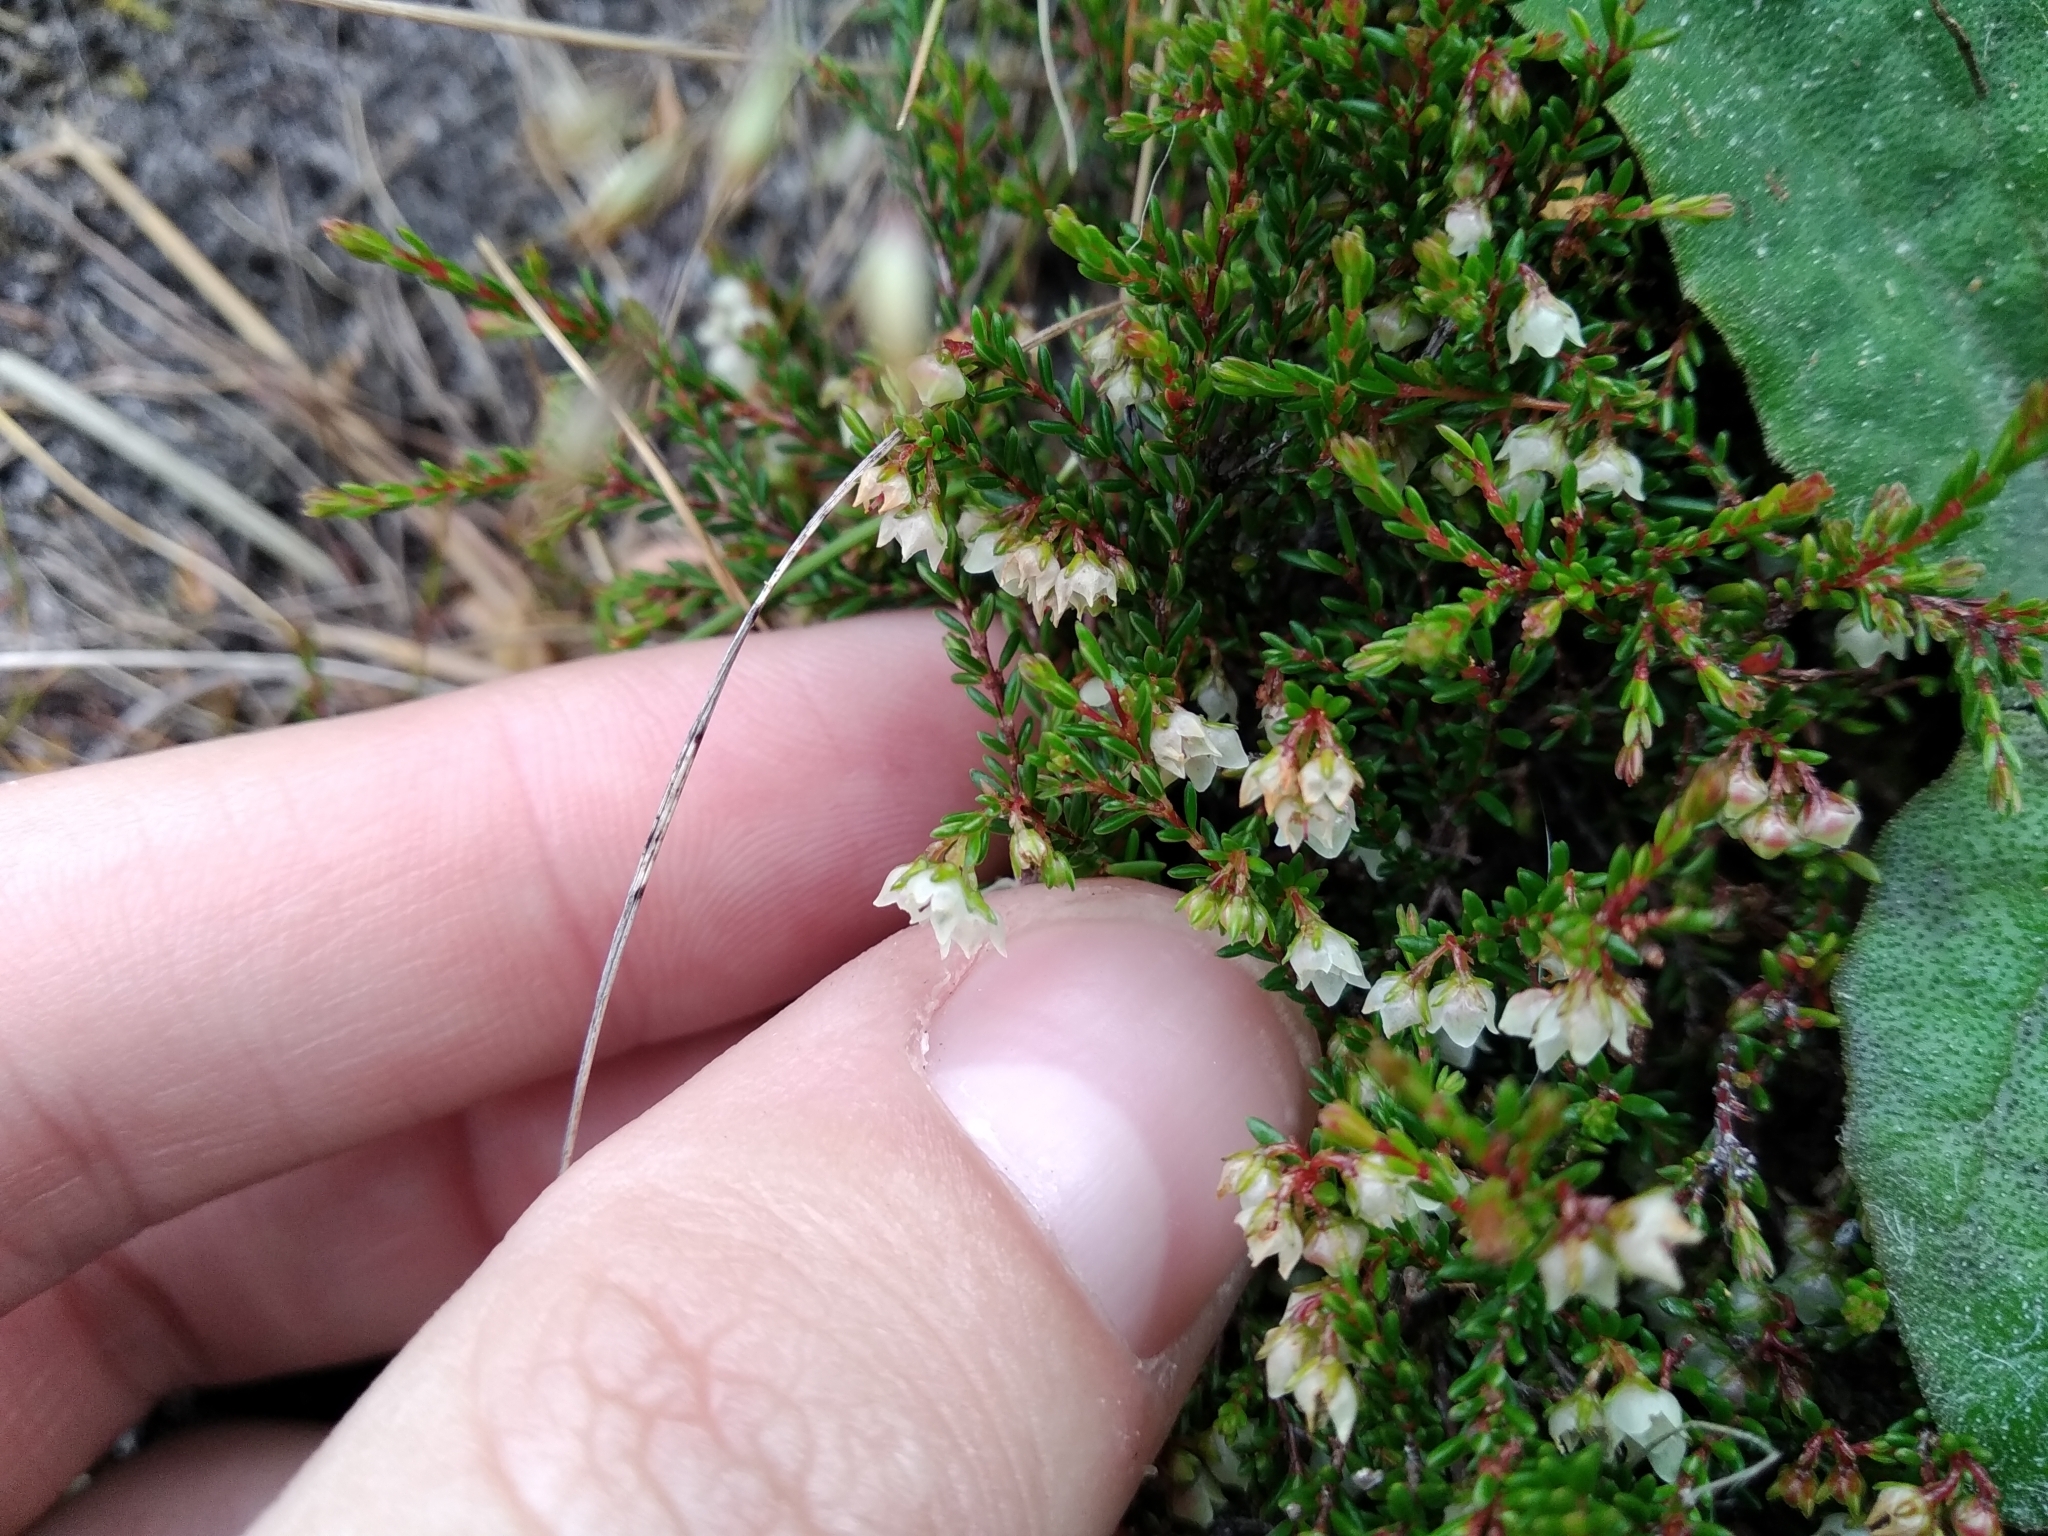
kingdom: Plantae
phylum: Tracheophyta
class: Magnoliopsida
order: Ericales
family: Ericaceae
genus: Erica
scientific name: Erica tenuis
